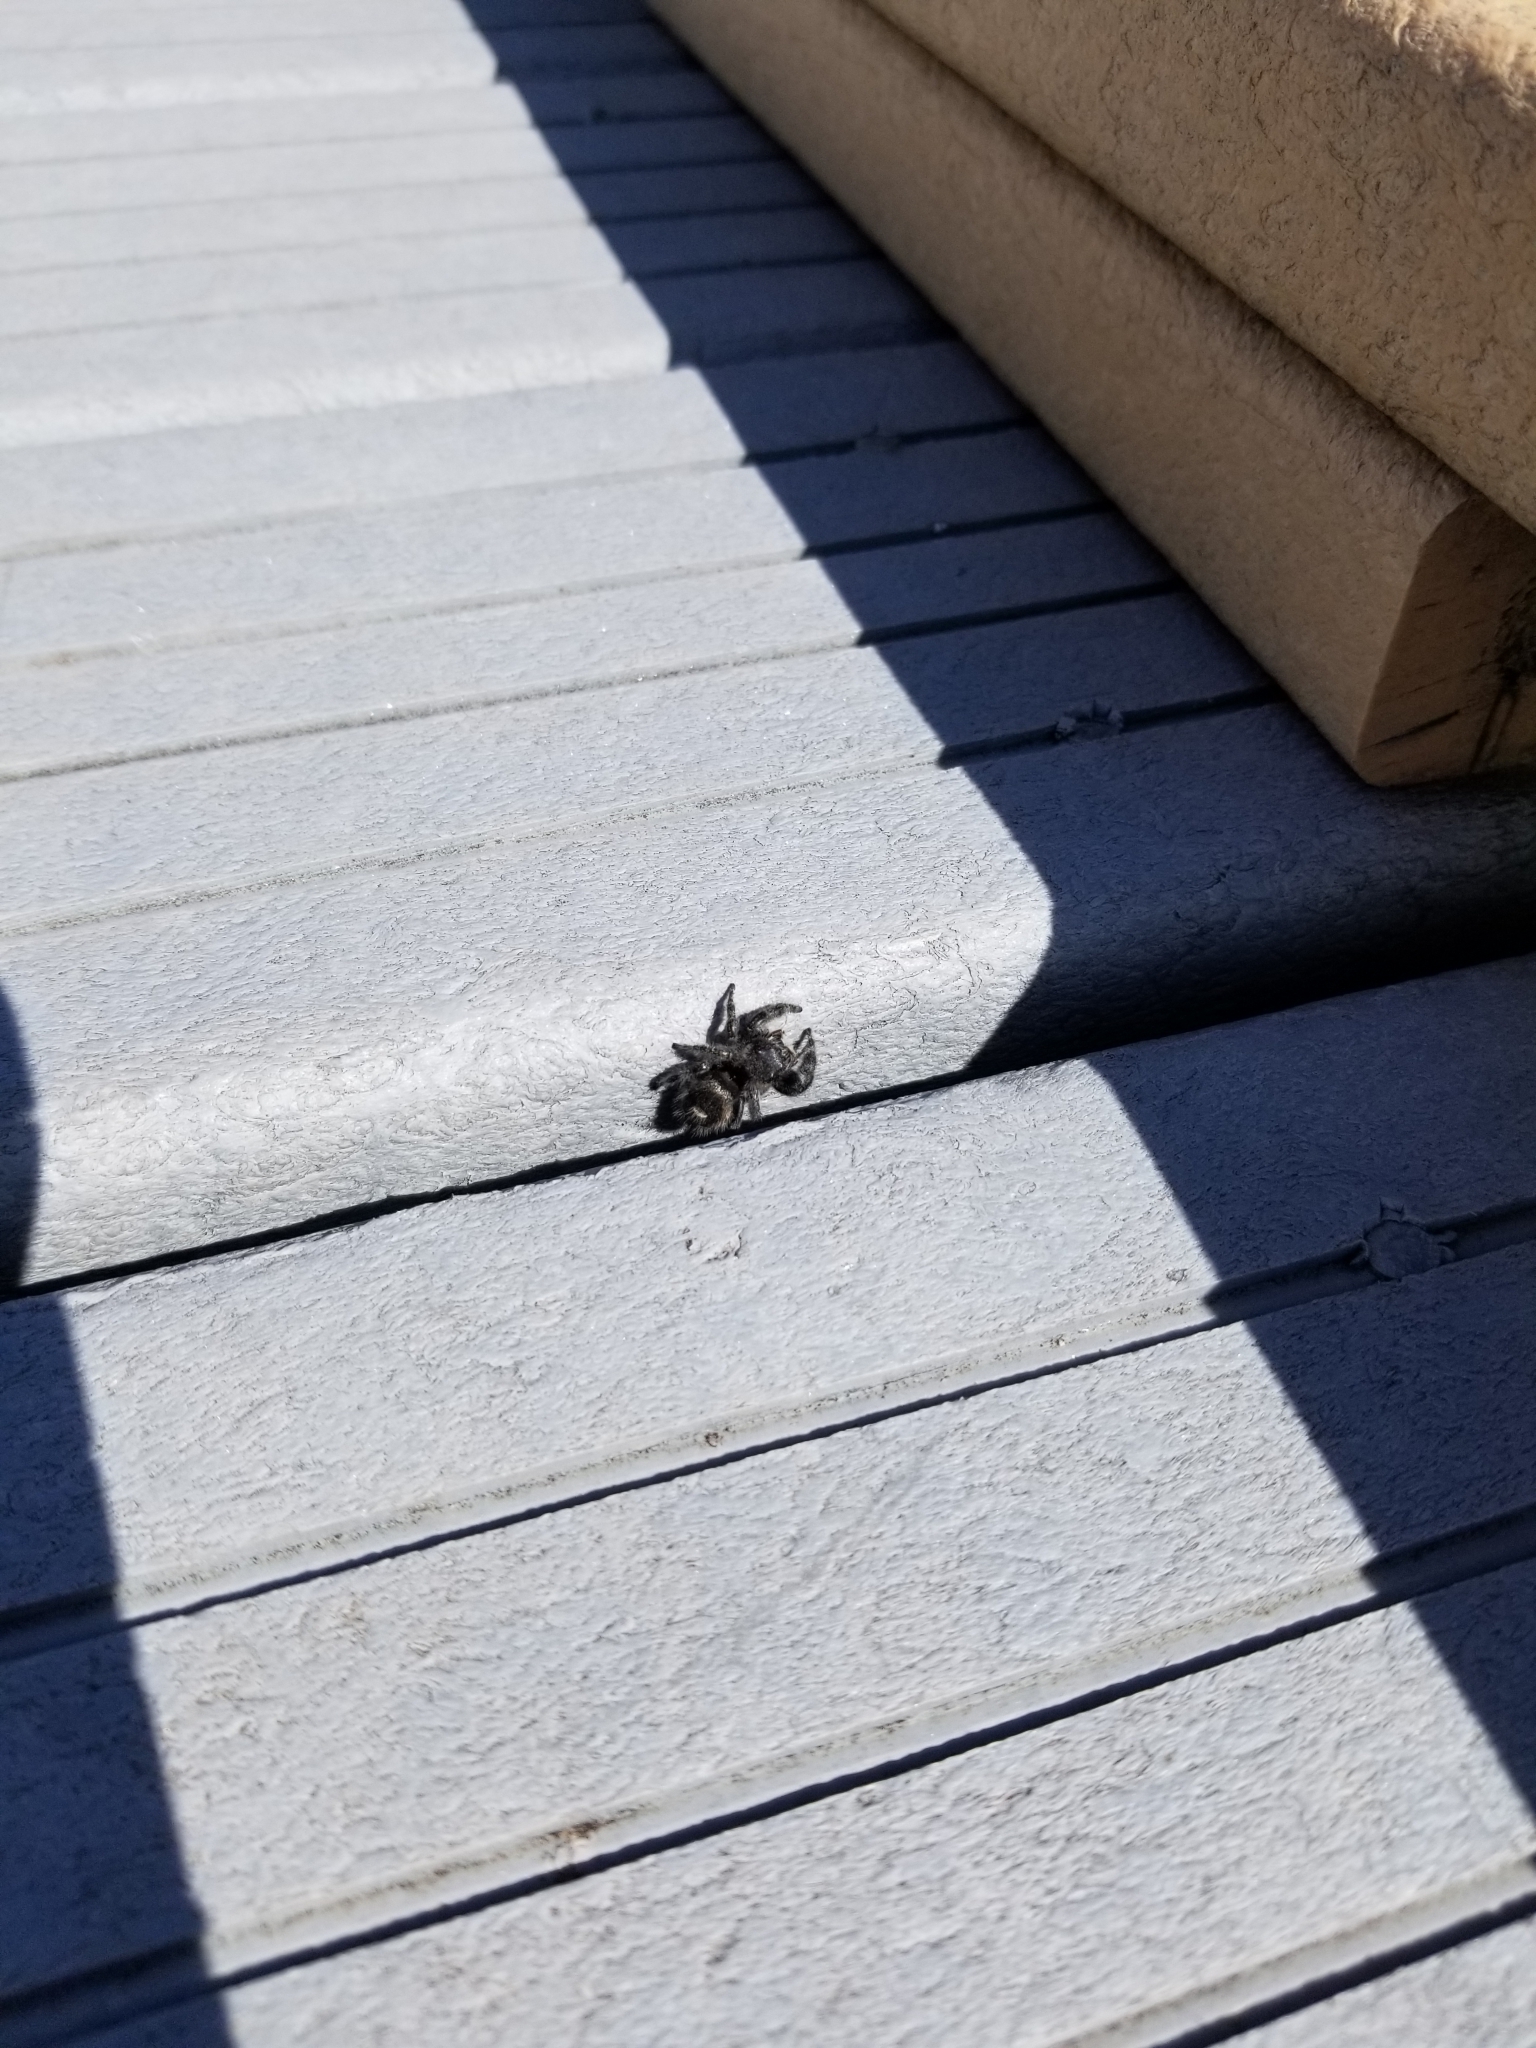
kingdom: Animalia
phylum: Arthropoda
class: Arachnida
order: Araneae
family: Salticidae
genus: Phidippus
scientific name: Phidippus audax
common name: Bold jumper
